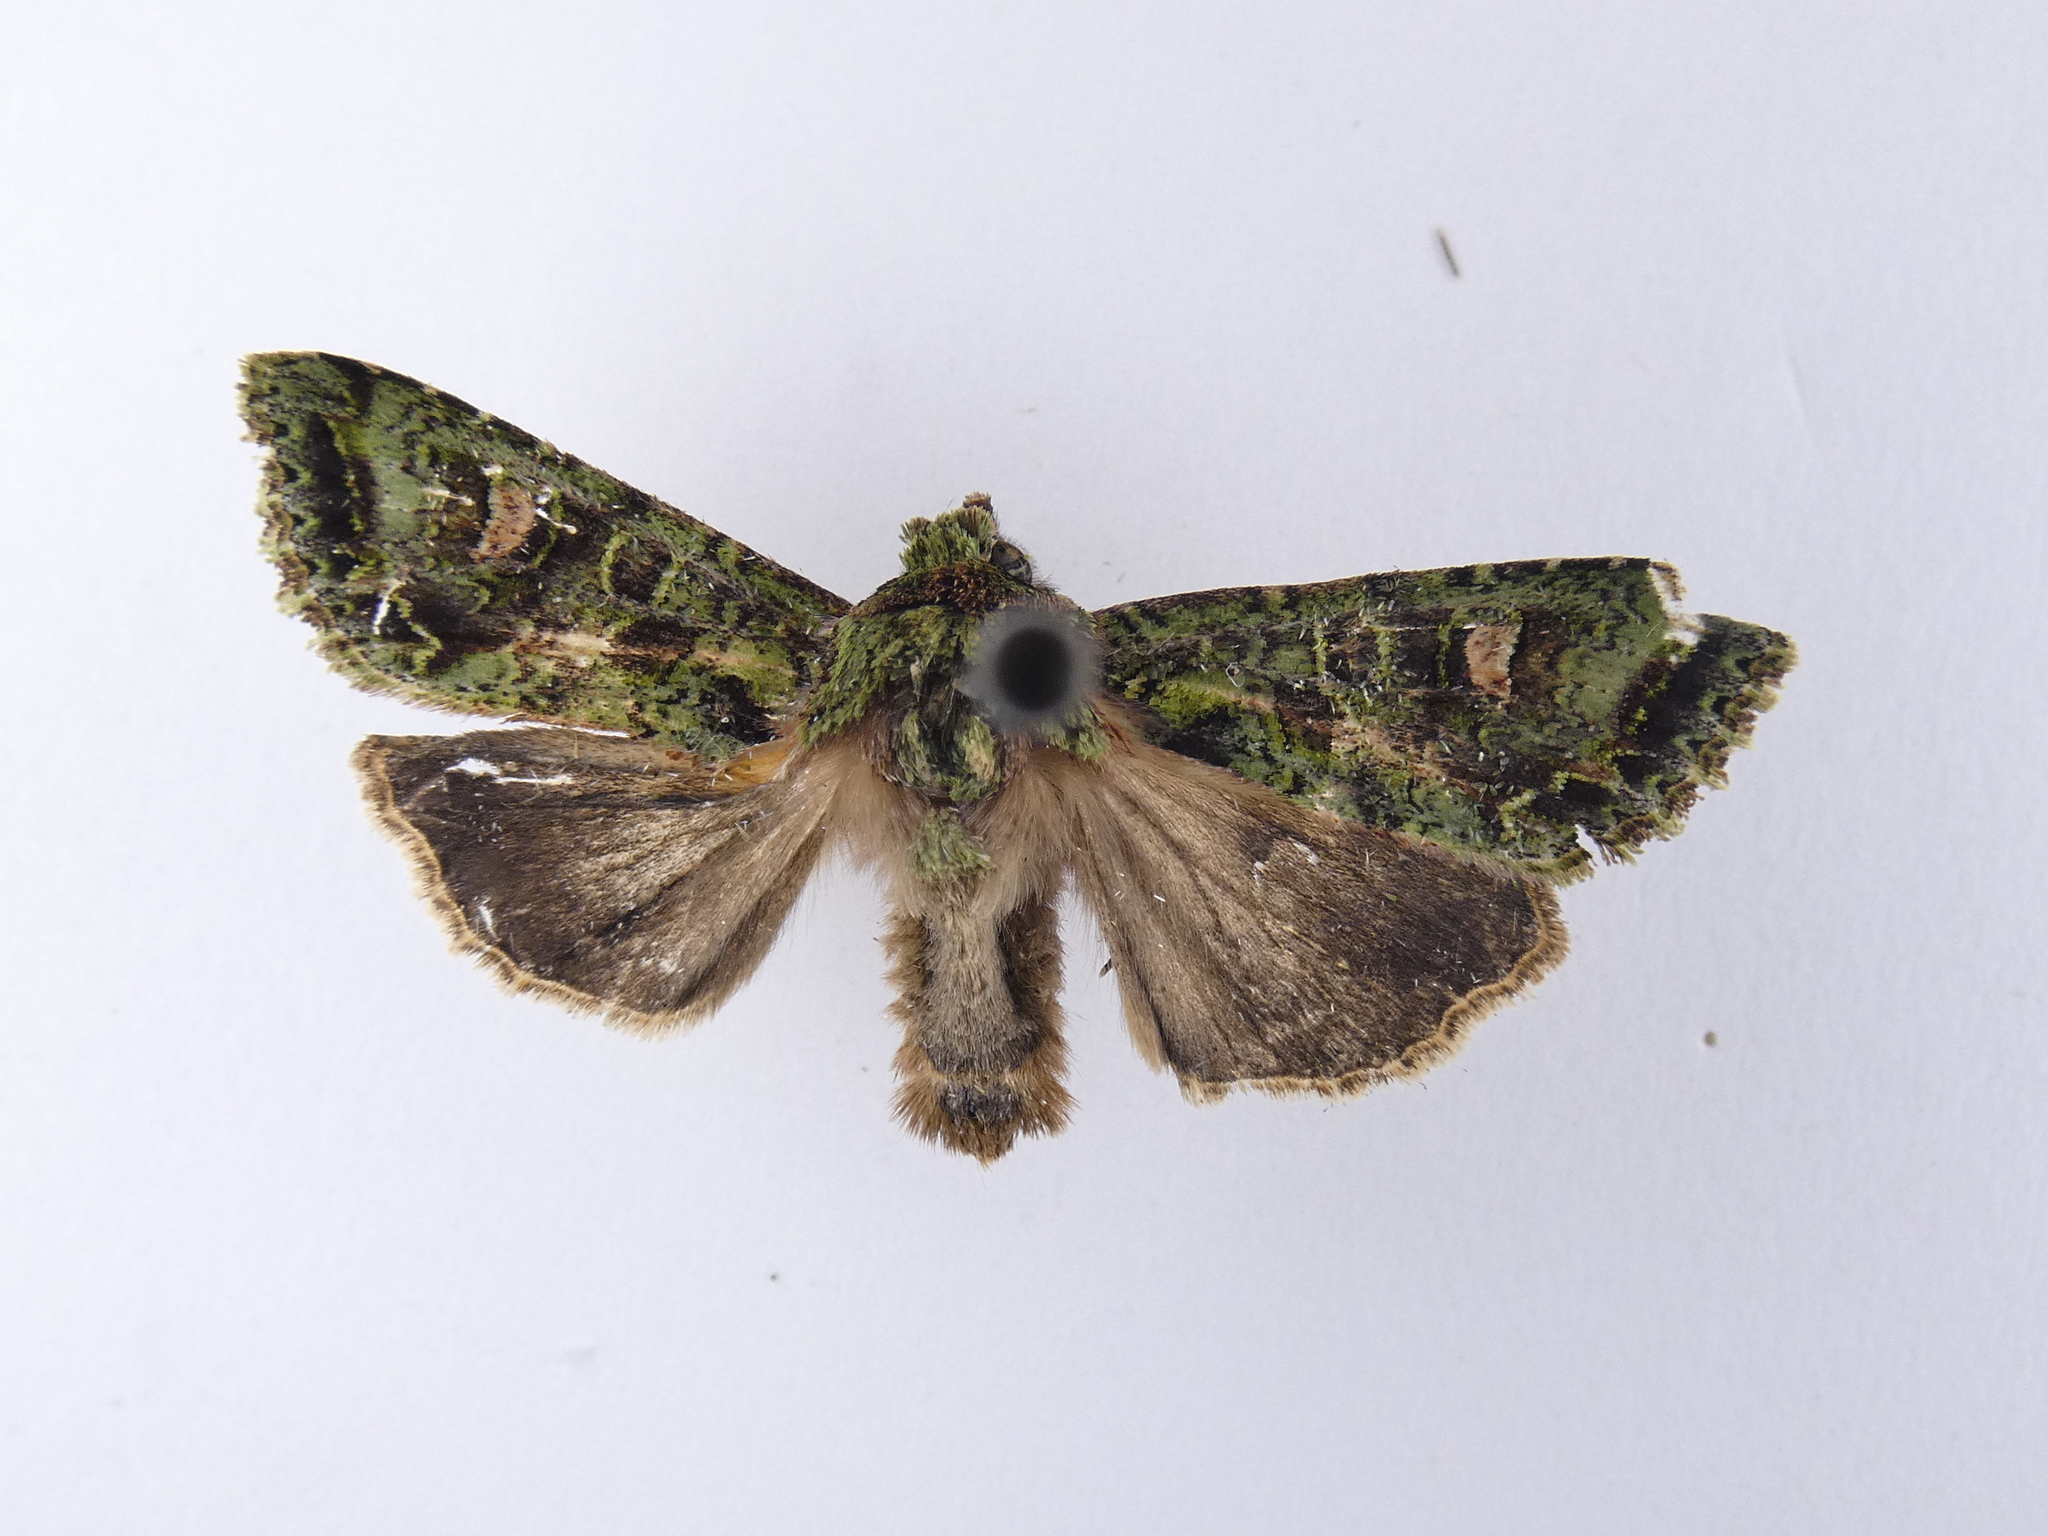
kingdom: Animalia
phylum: Arthropoda
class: Insecta
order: Lepidoptera
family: Noctuidae
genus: Ichneutica
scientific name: Ichneutica
